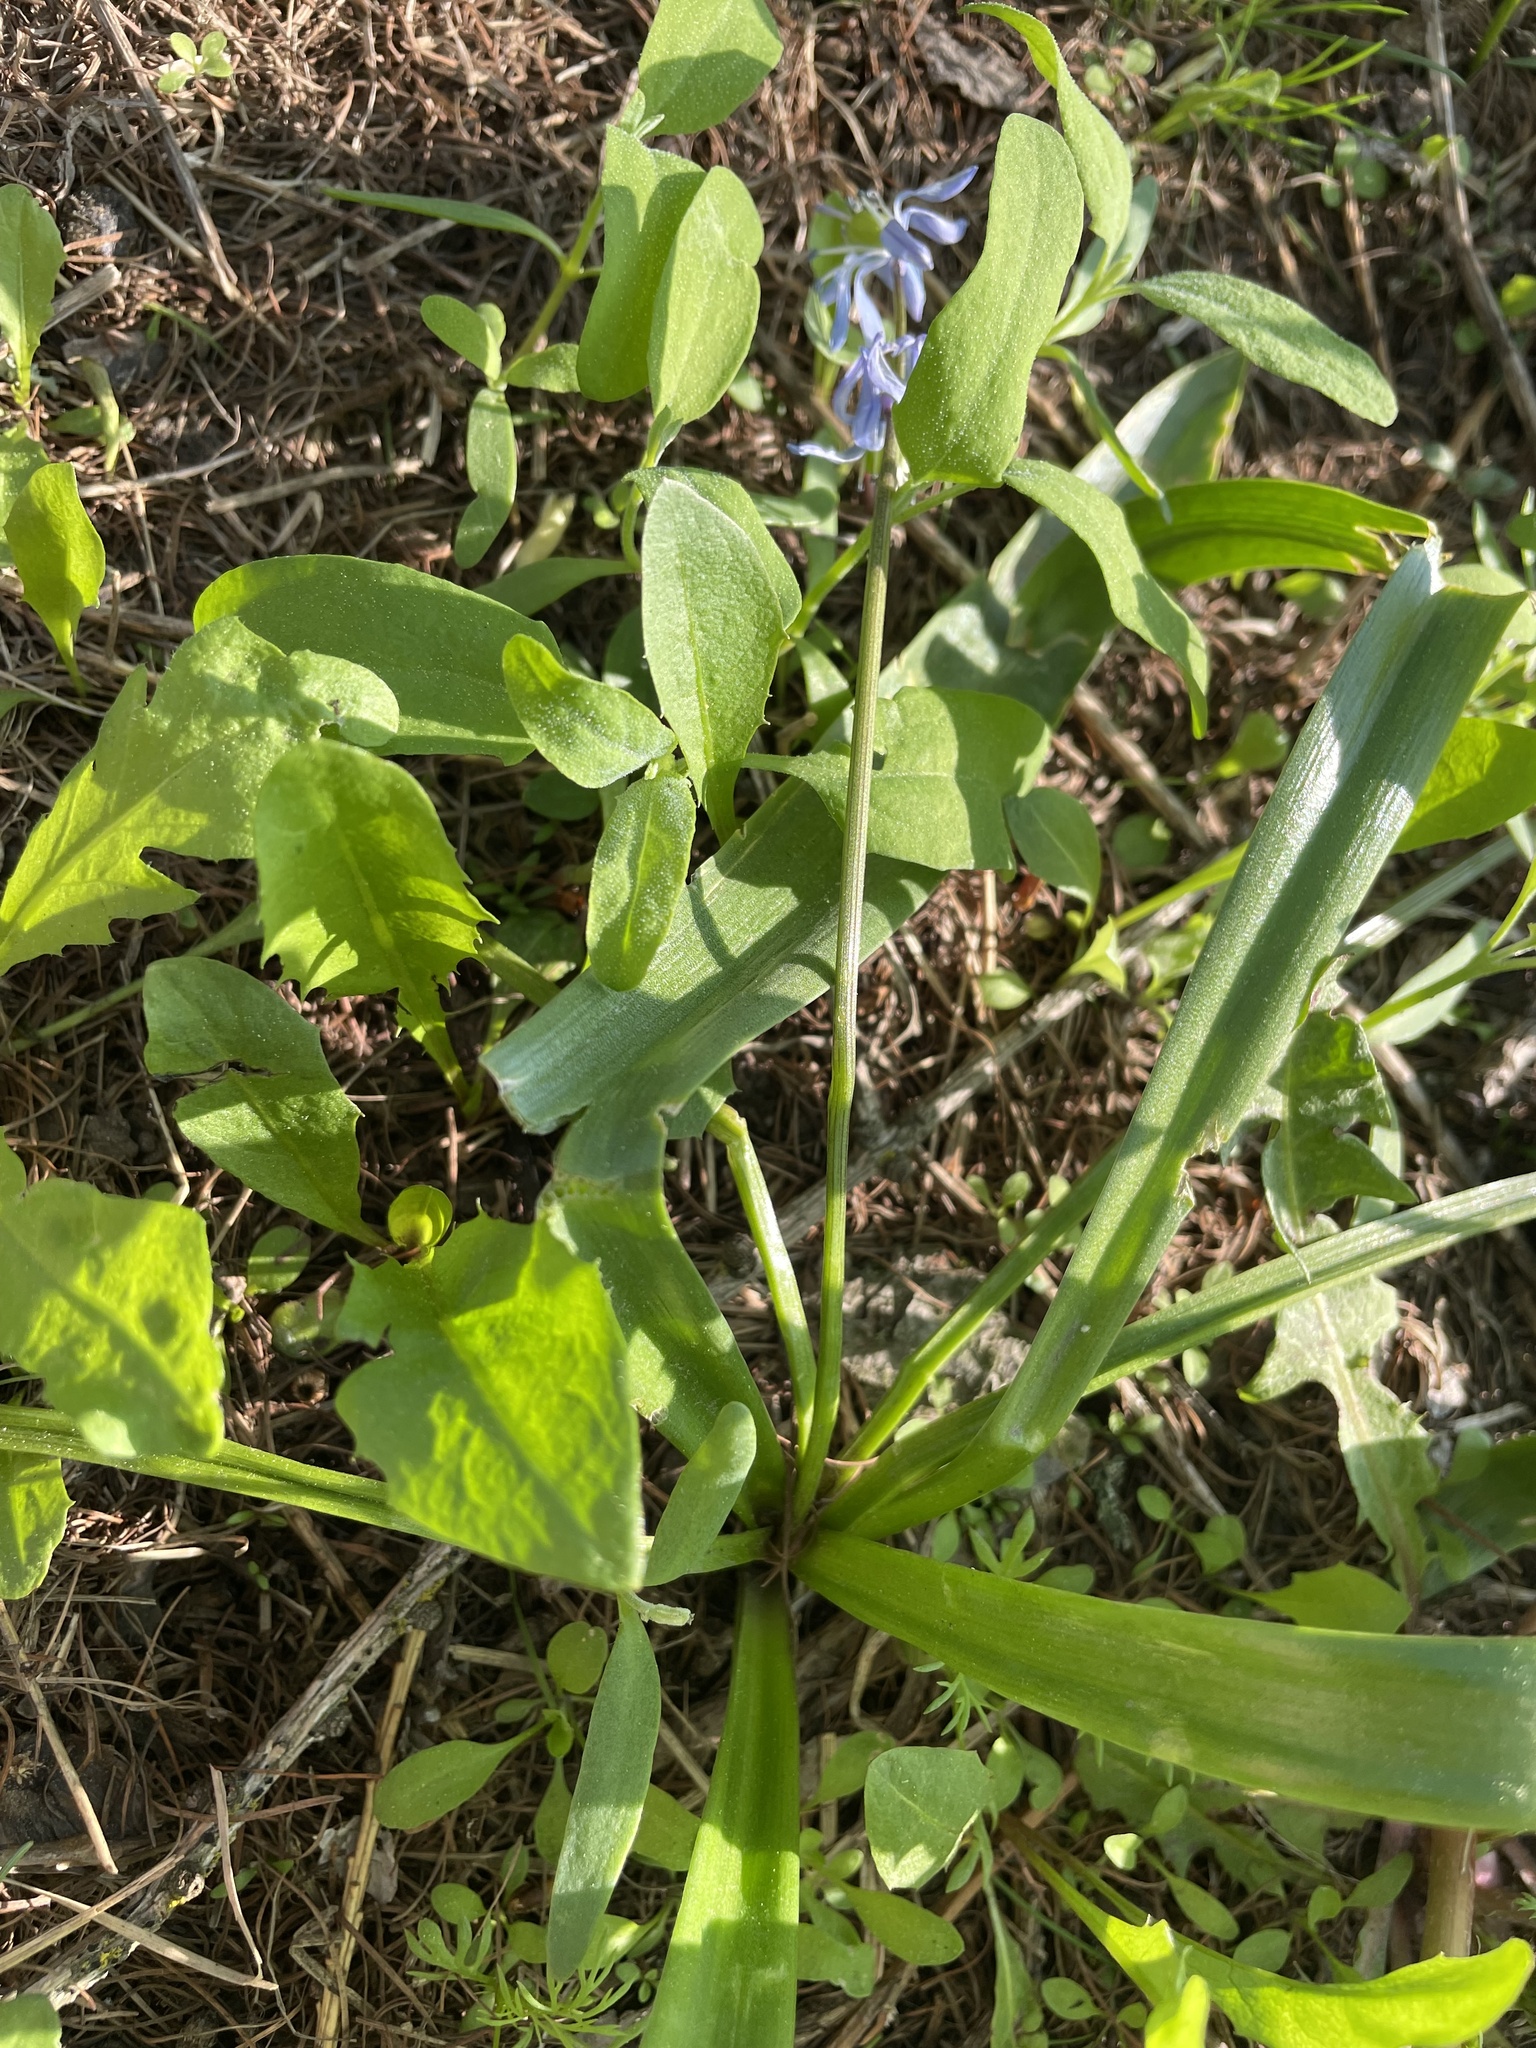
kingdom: Plantae
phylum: Tracheophyta
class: Liliopsida
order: Asparagales
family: Asparagaceae
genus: Scilla
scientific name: Scilla siberica
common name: Siberian squill
